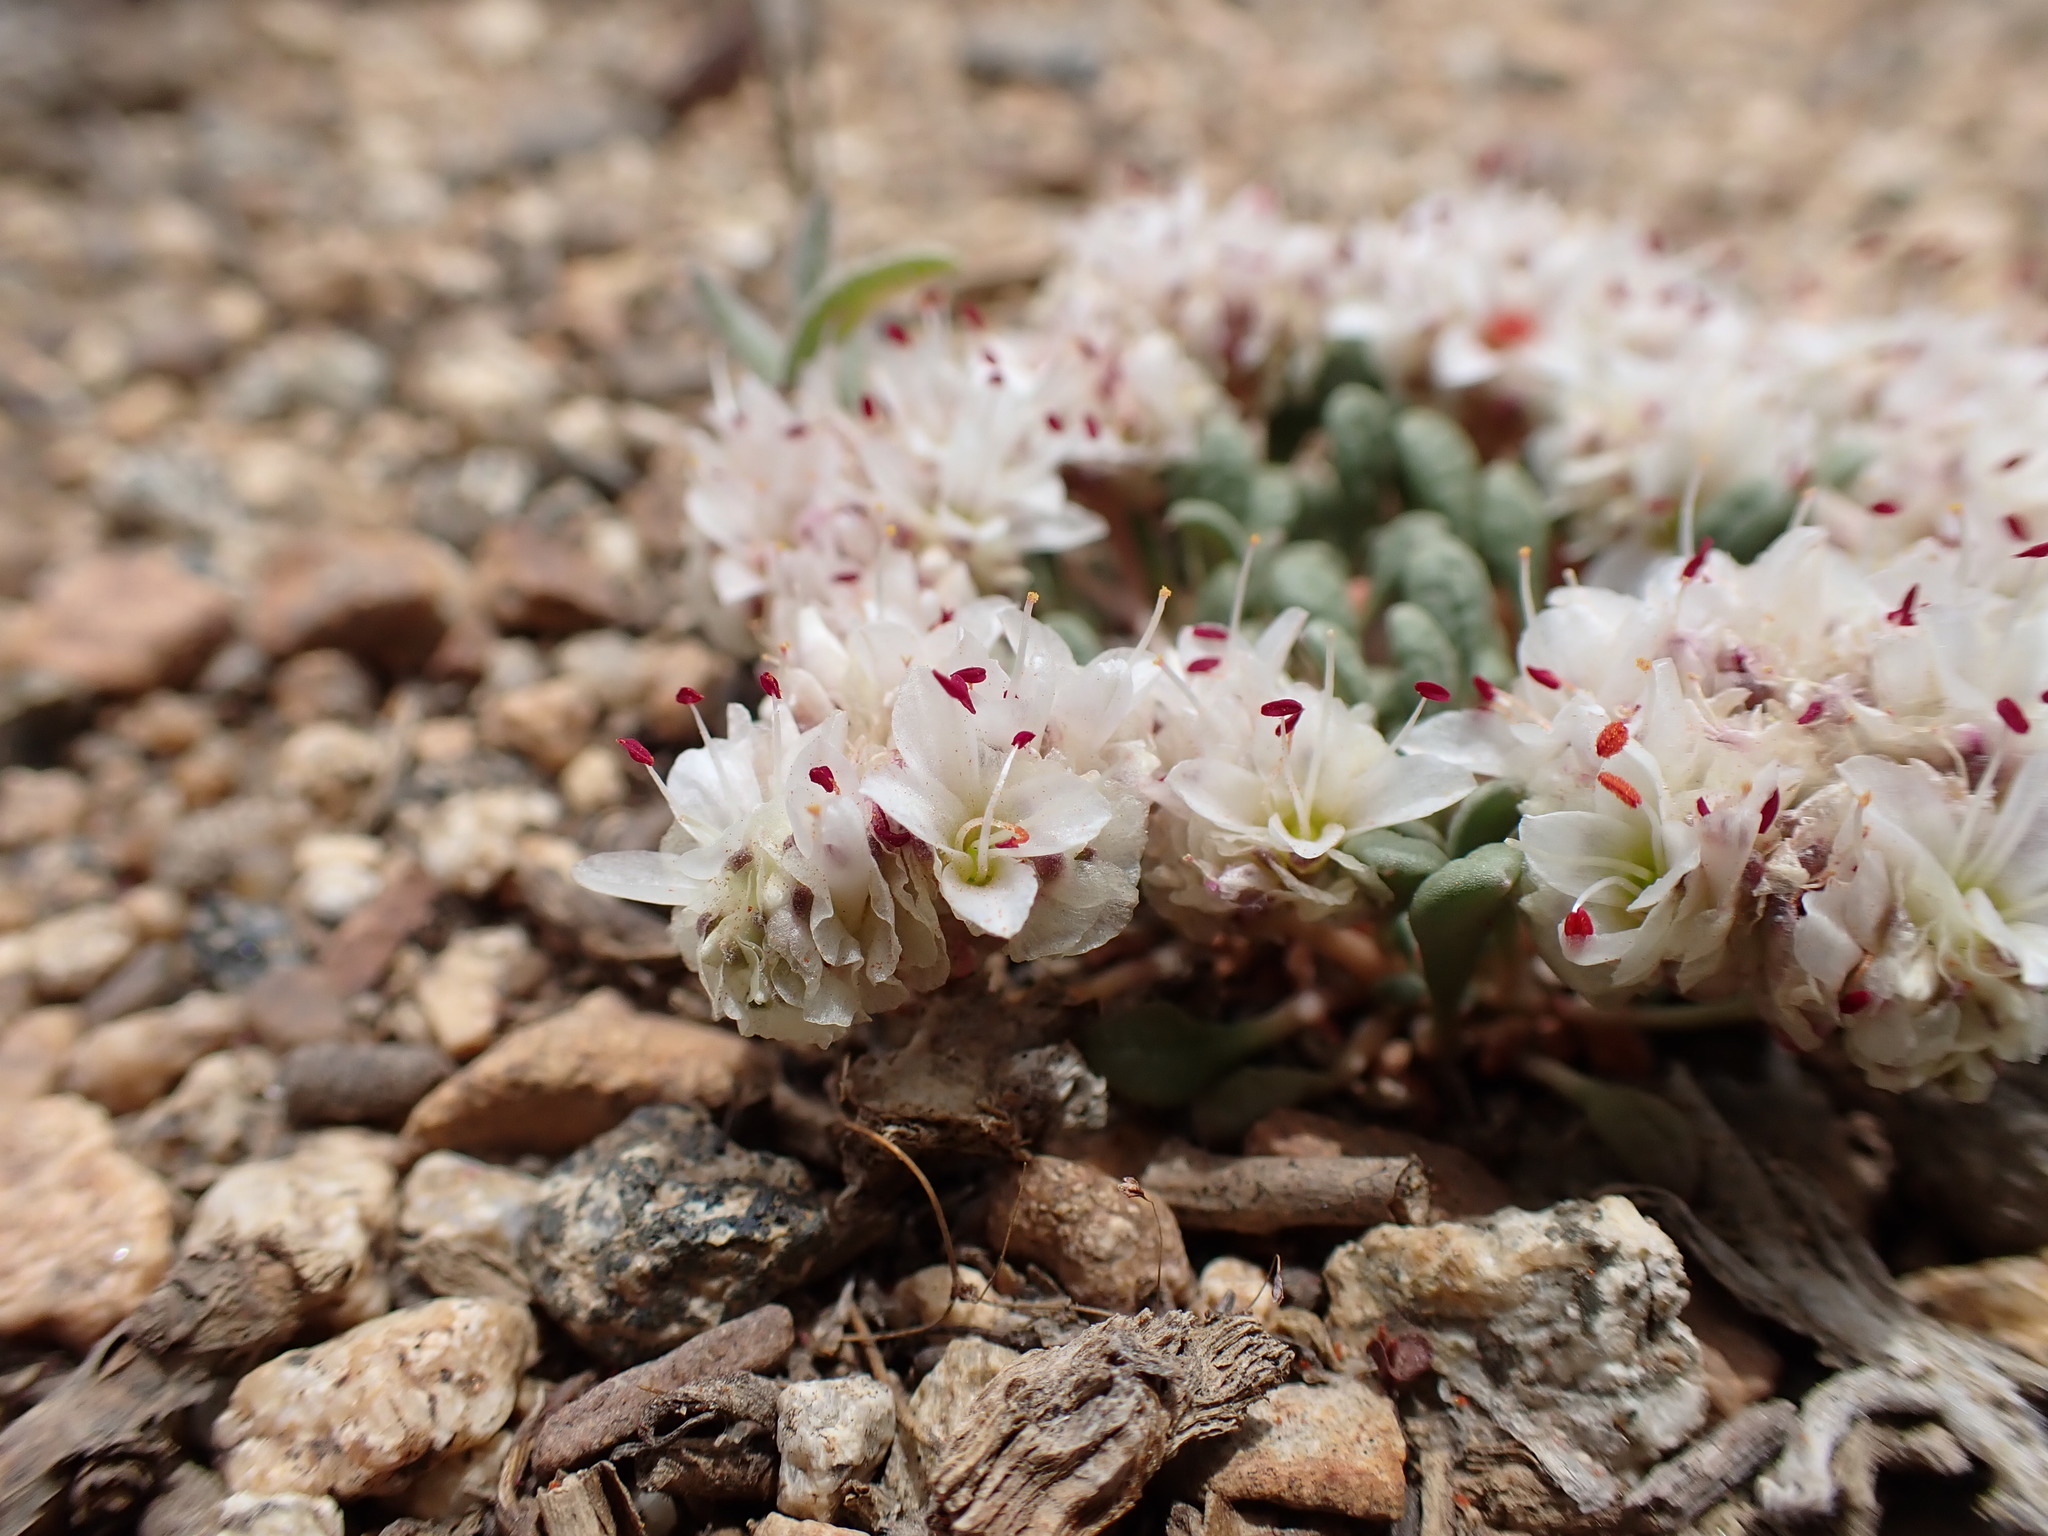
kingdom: Plantae
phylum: Tracheophyta
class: Magnoliopsida
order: Caryophyllales
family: Montiaceae
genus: Calyptridium
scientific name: Calyptridium umbellatum
